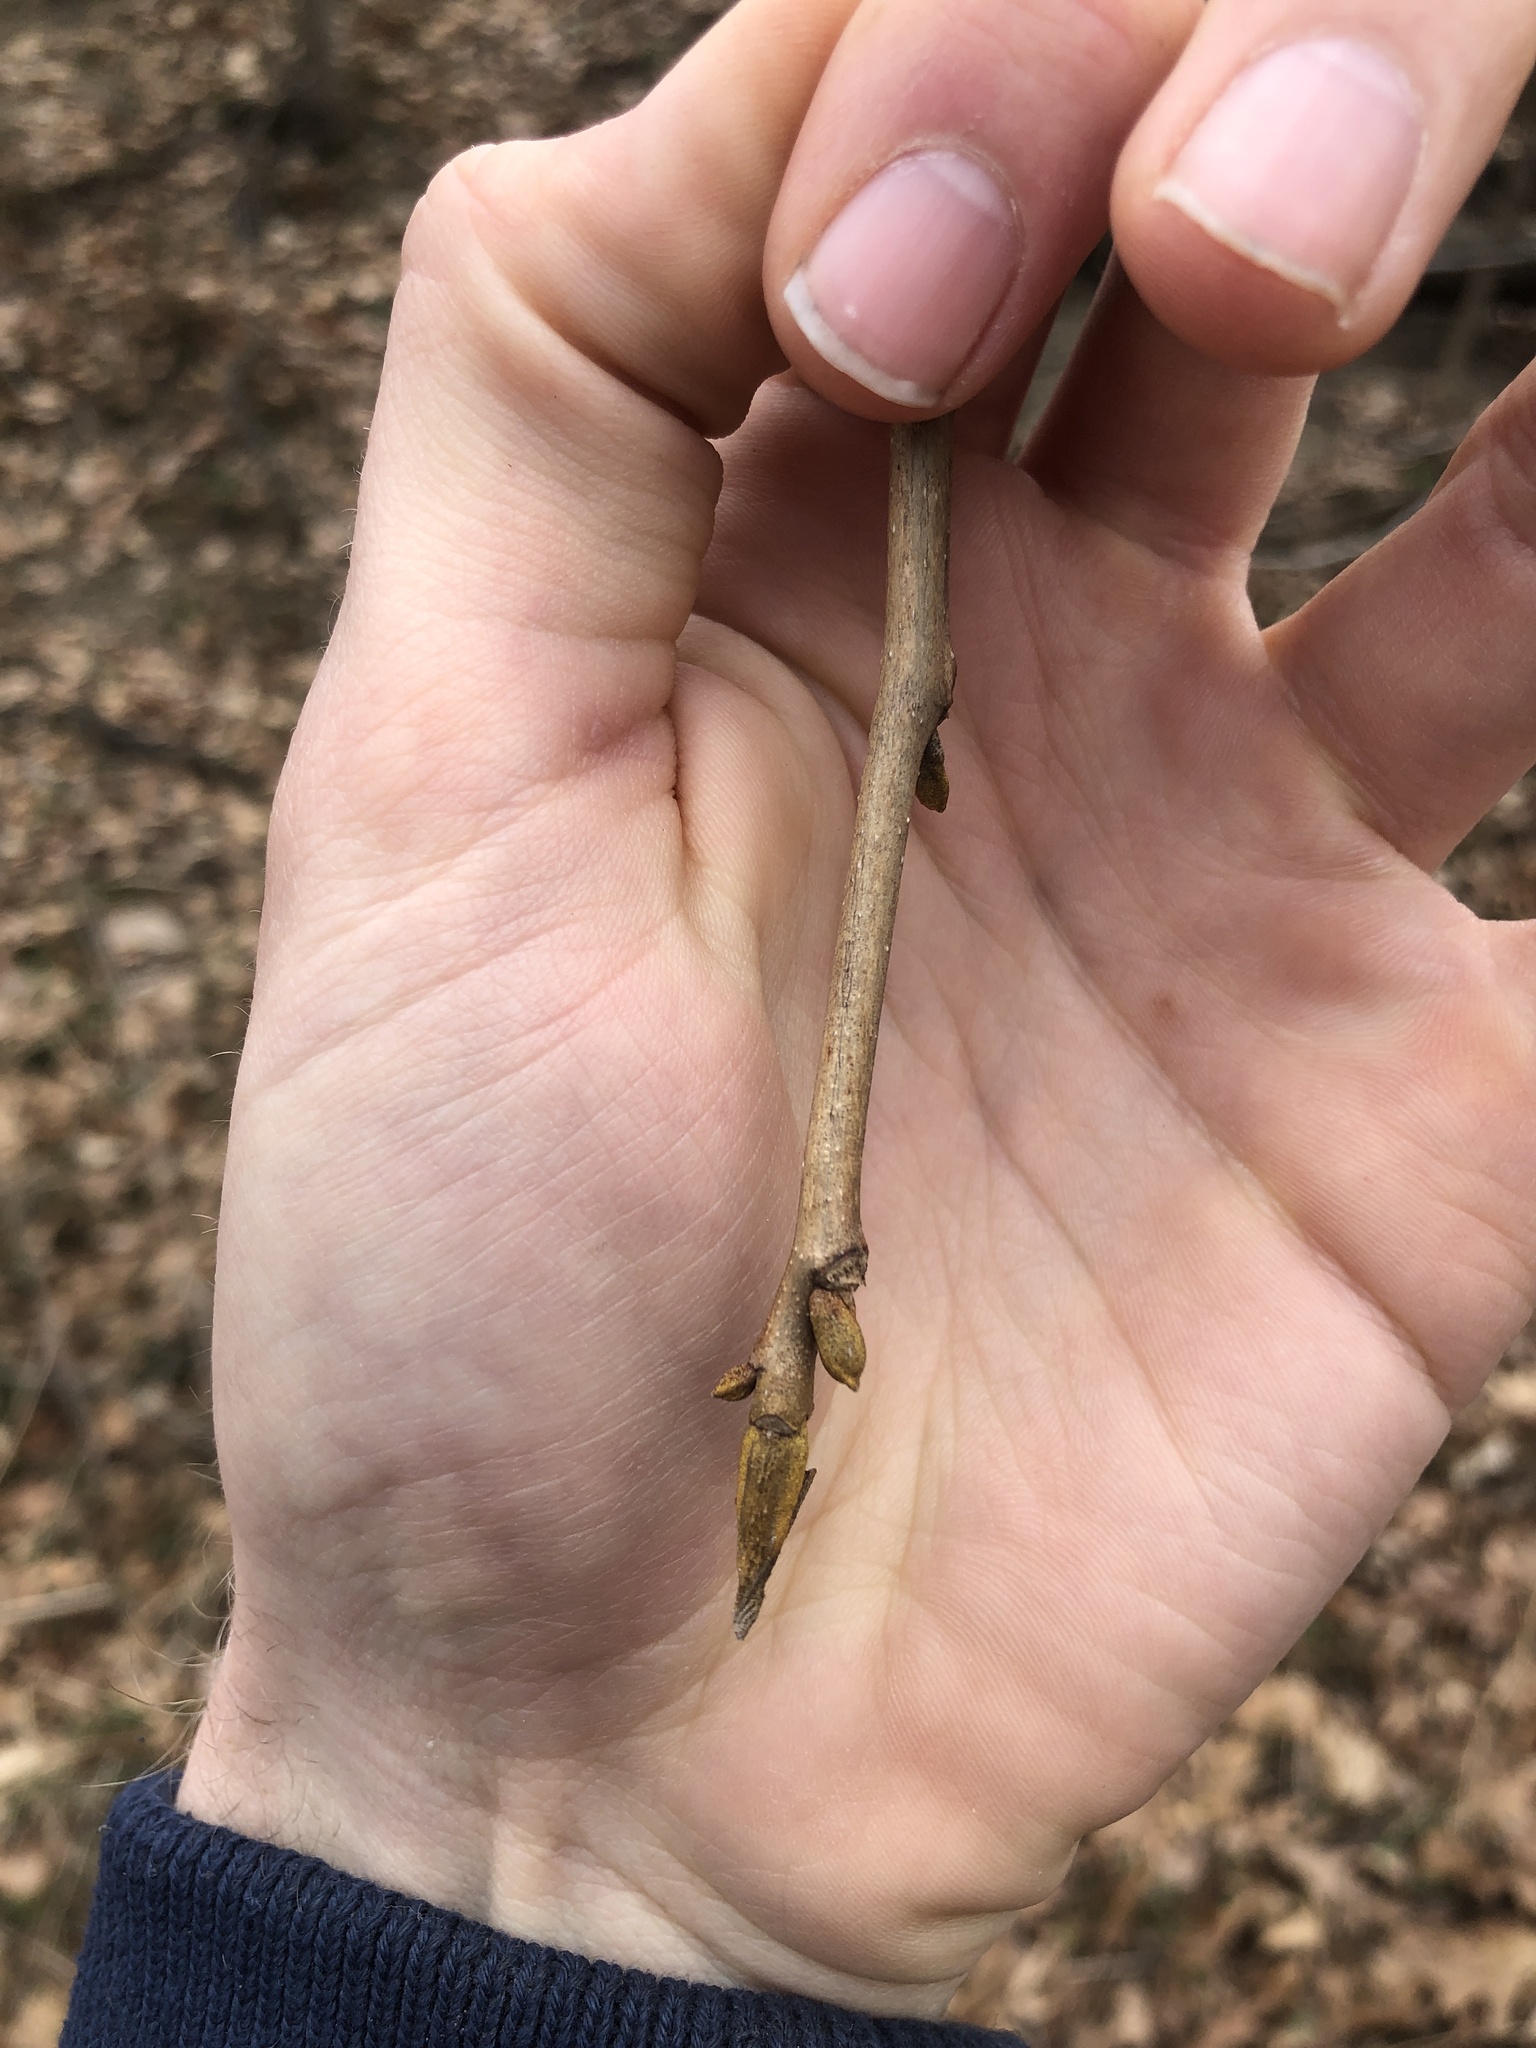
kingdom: Plantae
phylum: Tracheophyta
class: Magnoliopsida
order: Fagales
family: Juglandaceae
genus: Carya
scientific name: Carya cordiformis
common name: Bitternut hickory
